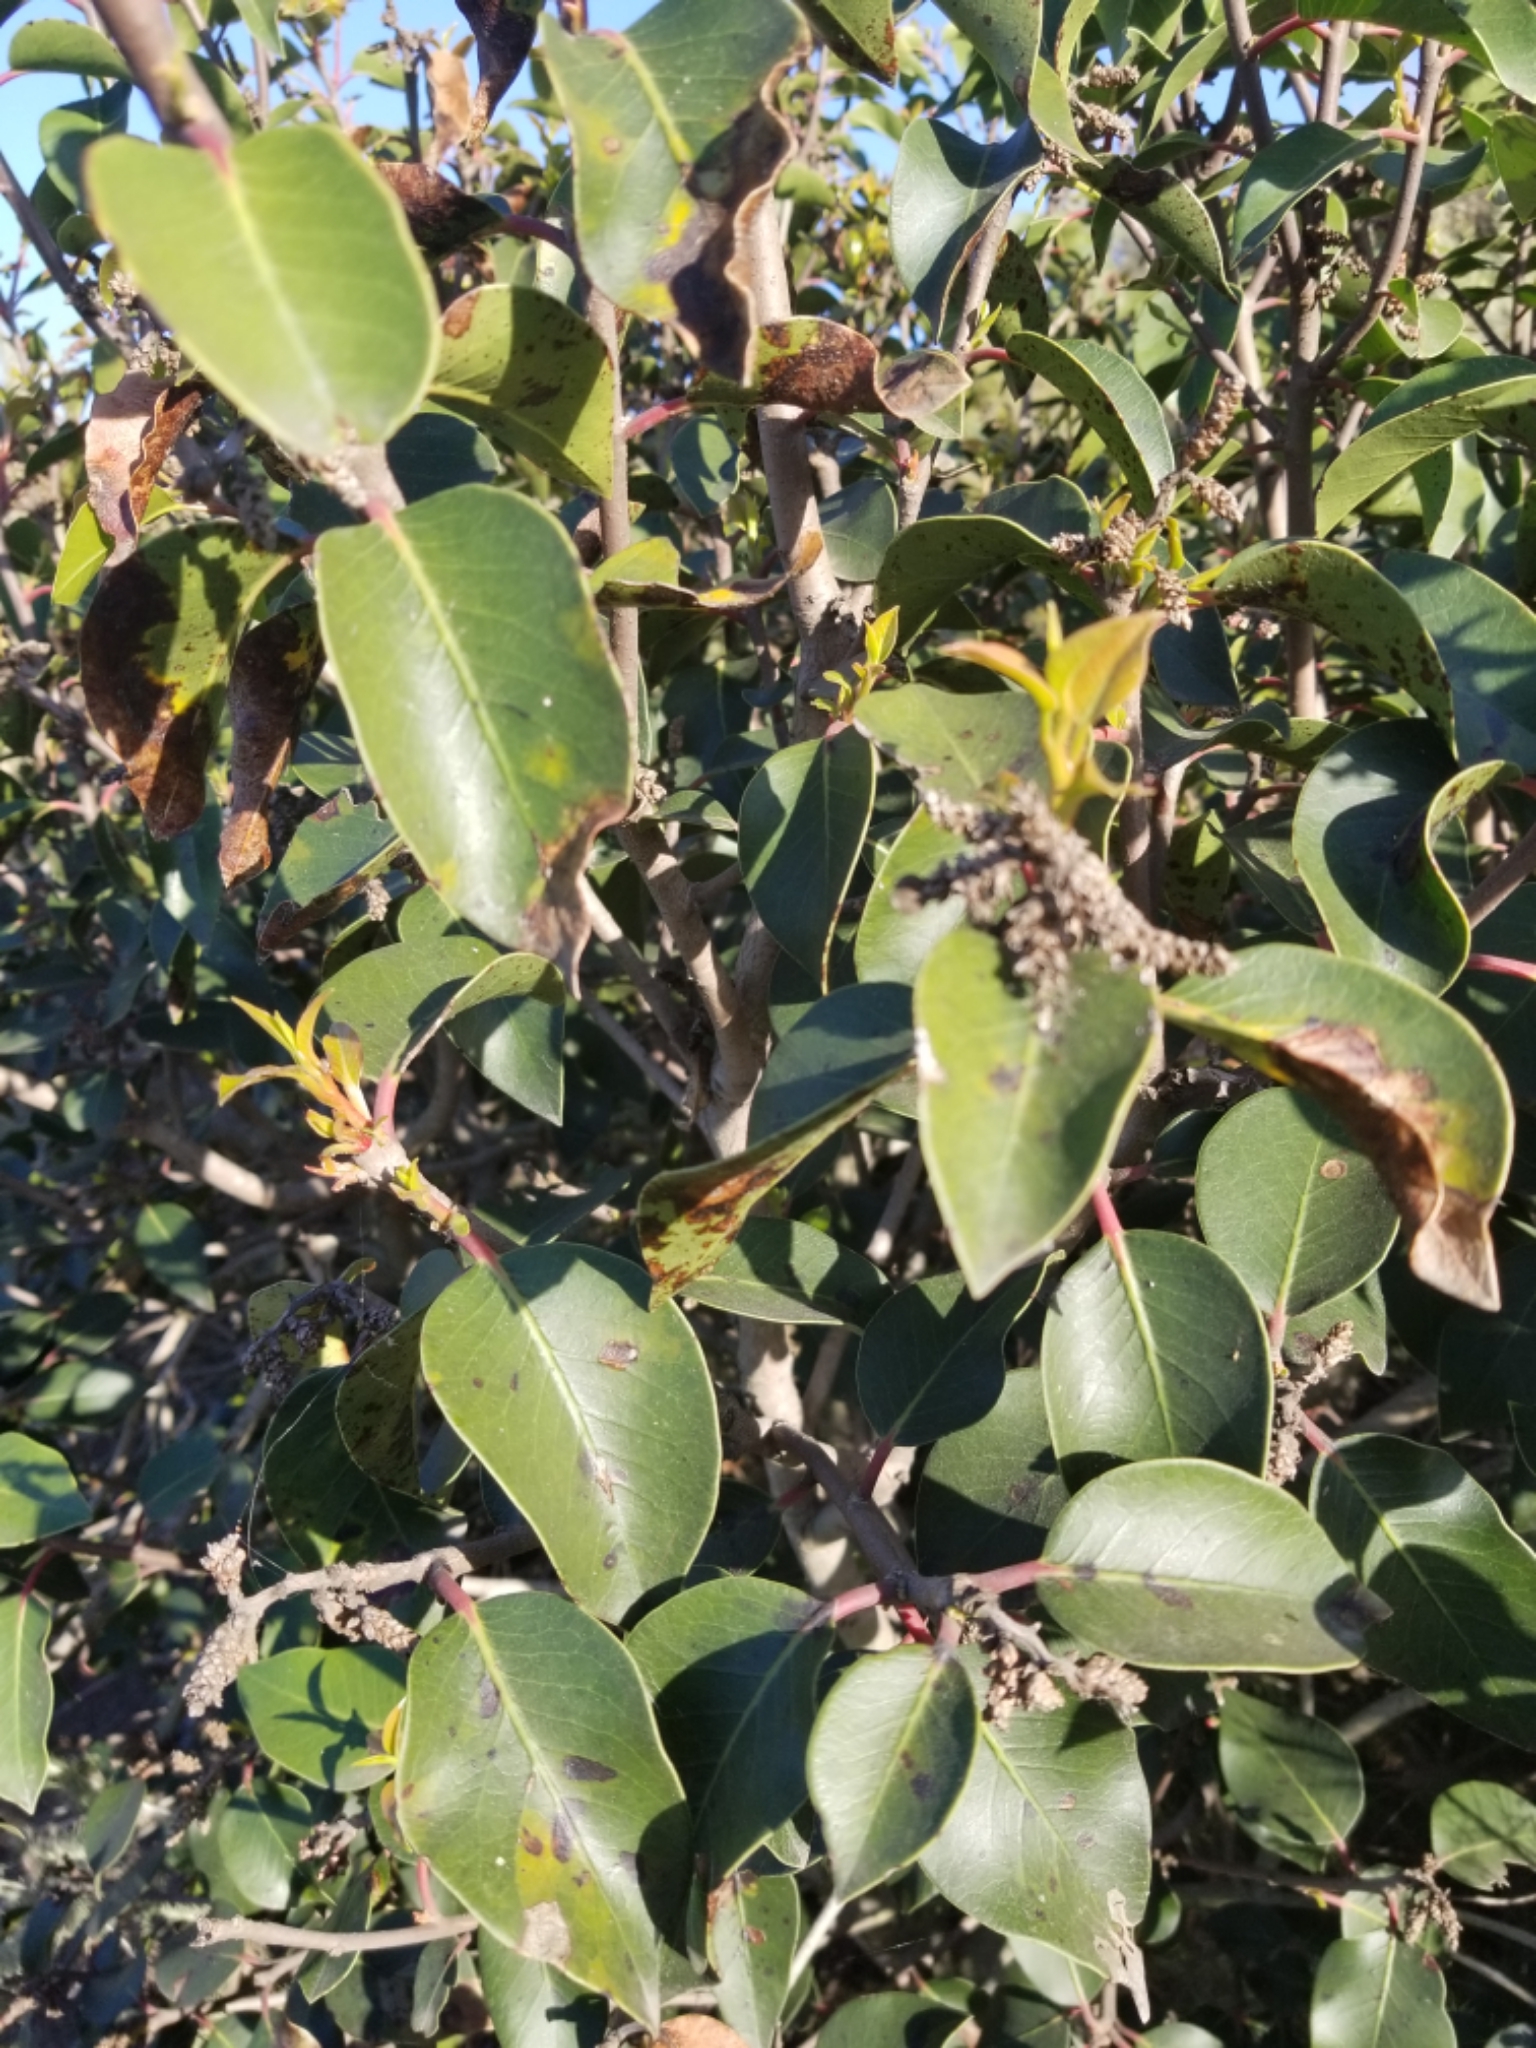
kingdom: Plantae
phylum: Tracheophyta
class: Magnoliopsida
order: Sapindales
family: Anacardiaceae
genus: Rhus
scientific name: Rhus ovata
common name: Sugar sumac
